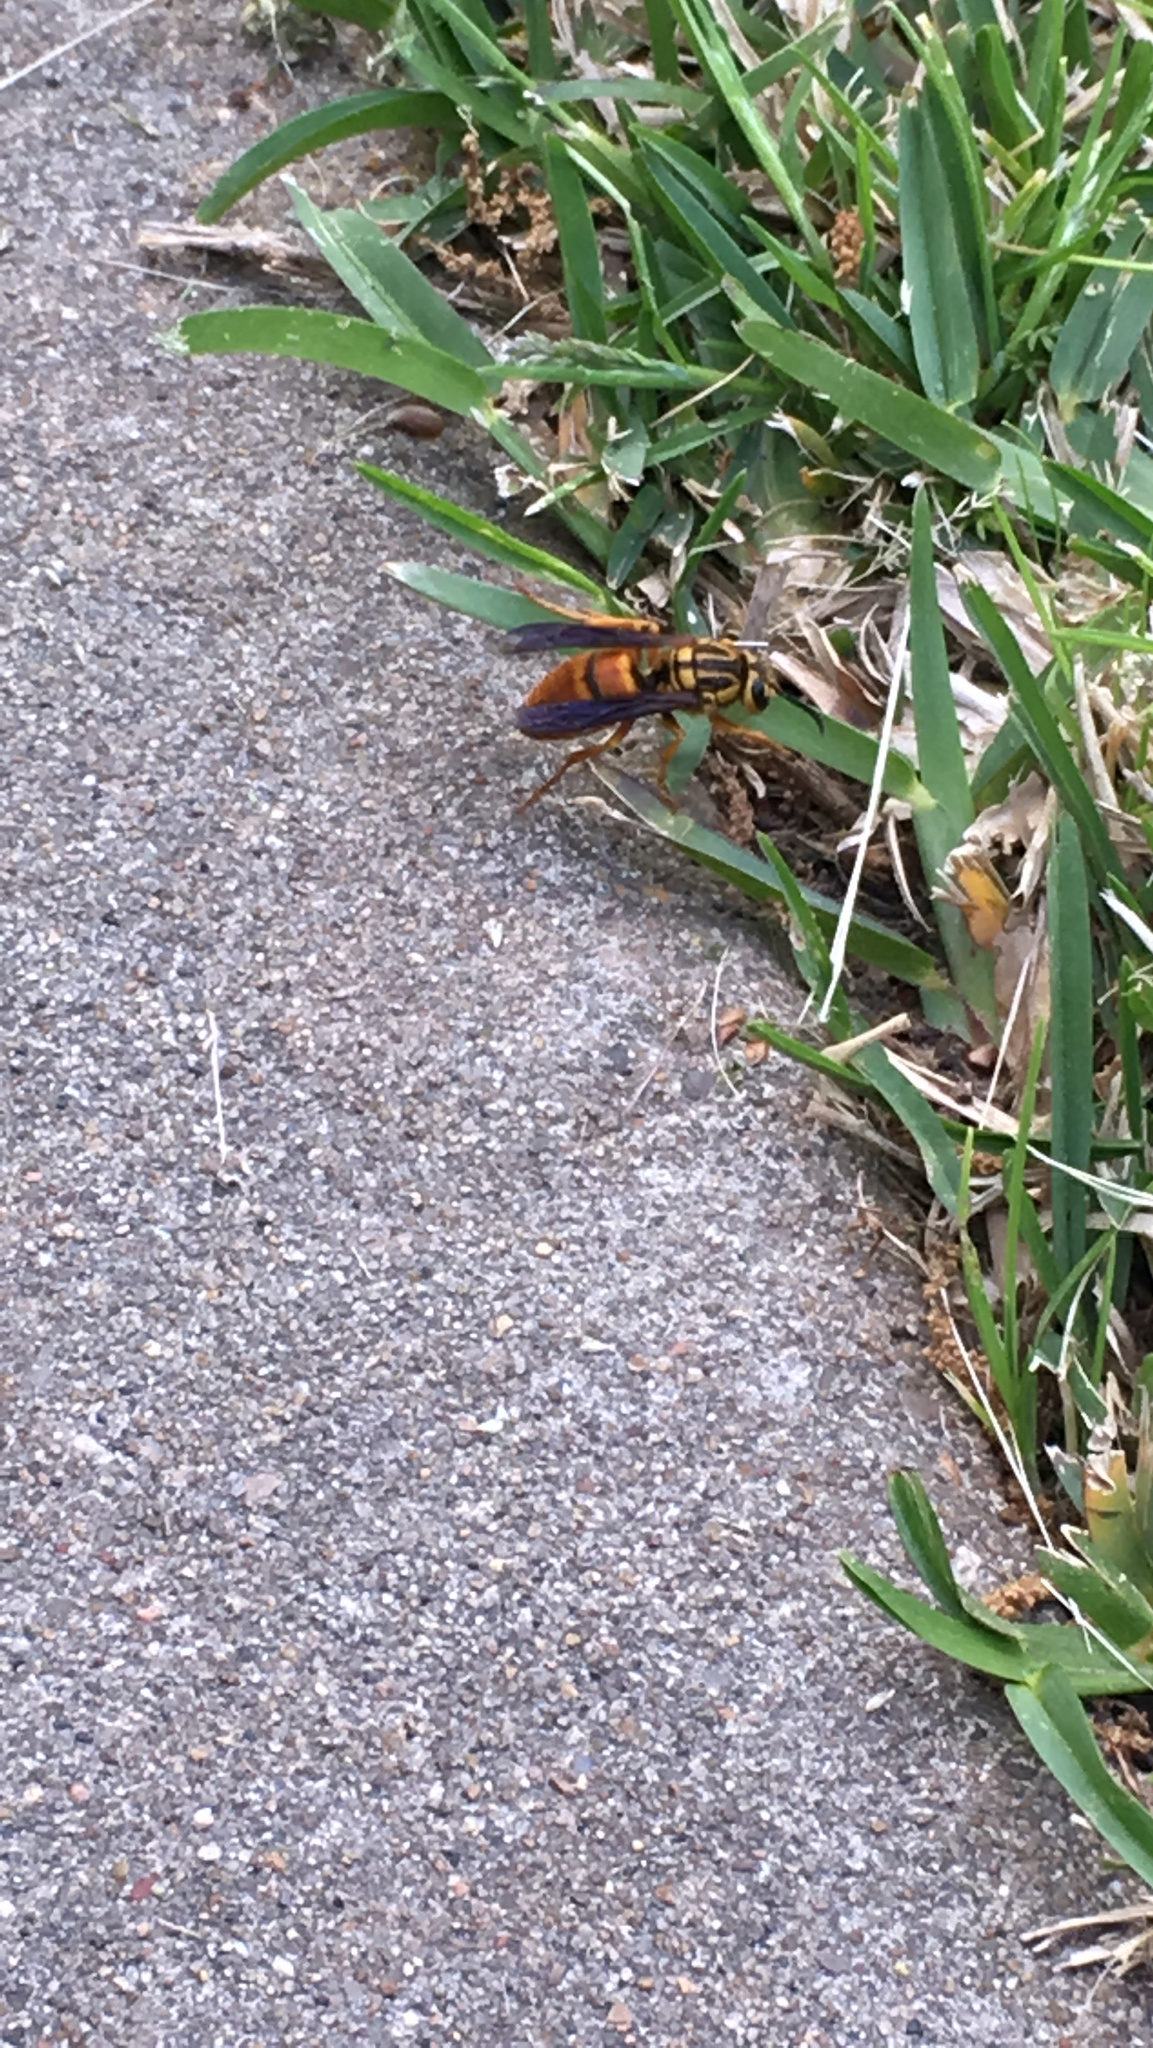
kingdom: Animalia
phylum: Arthropoda
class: Insecta
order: Hymenoptera
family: Vespidae
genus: Vespula
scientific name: Vespula squamosa
